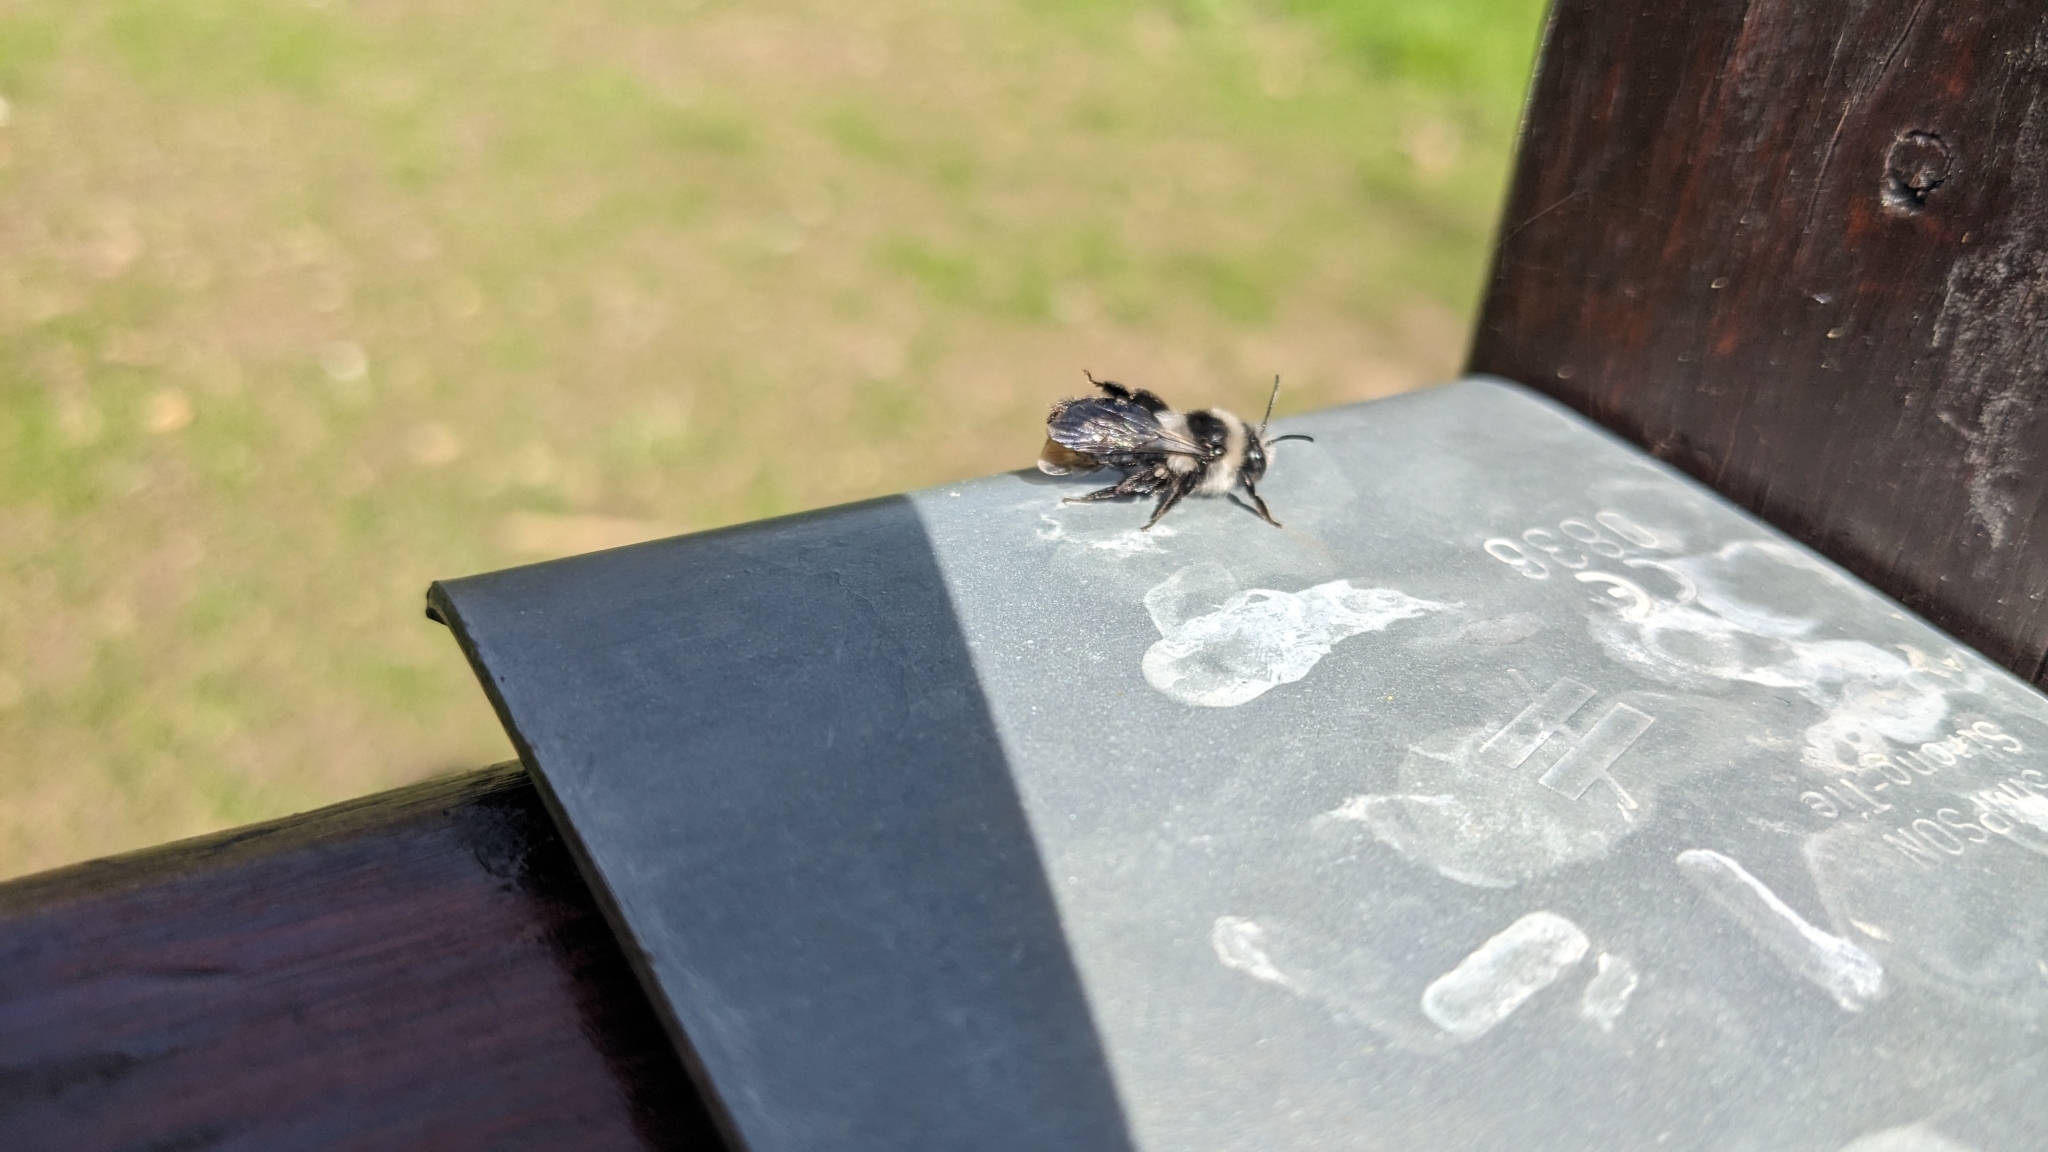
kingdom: Animalia
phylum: Arthropoda
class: Insecta
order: Hymenoptera
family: Andrenidae
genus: Andrena
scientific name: Andrena cineraria
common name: Ashy mining bee
